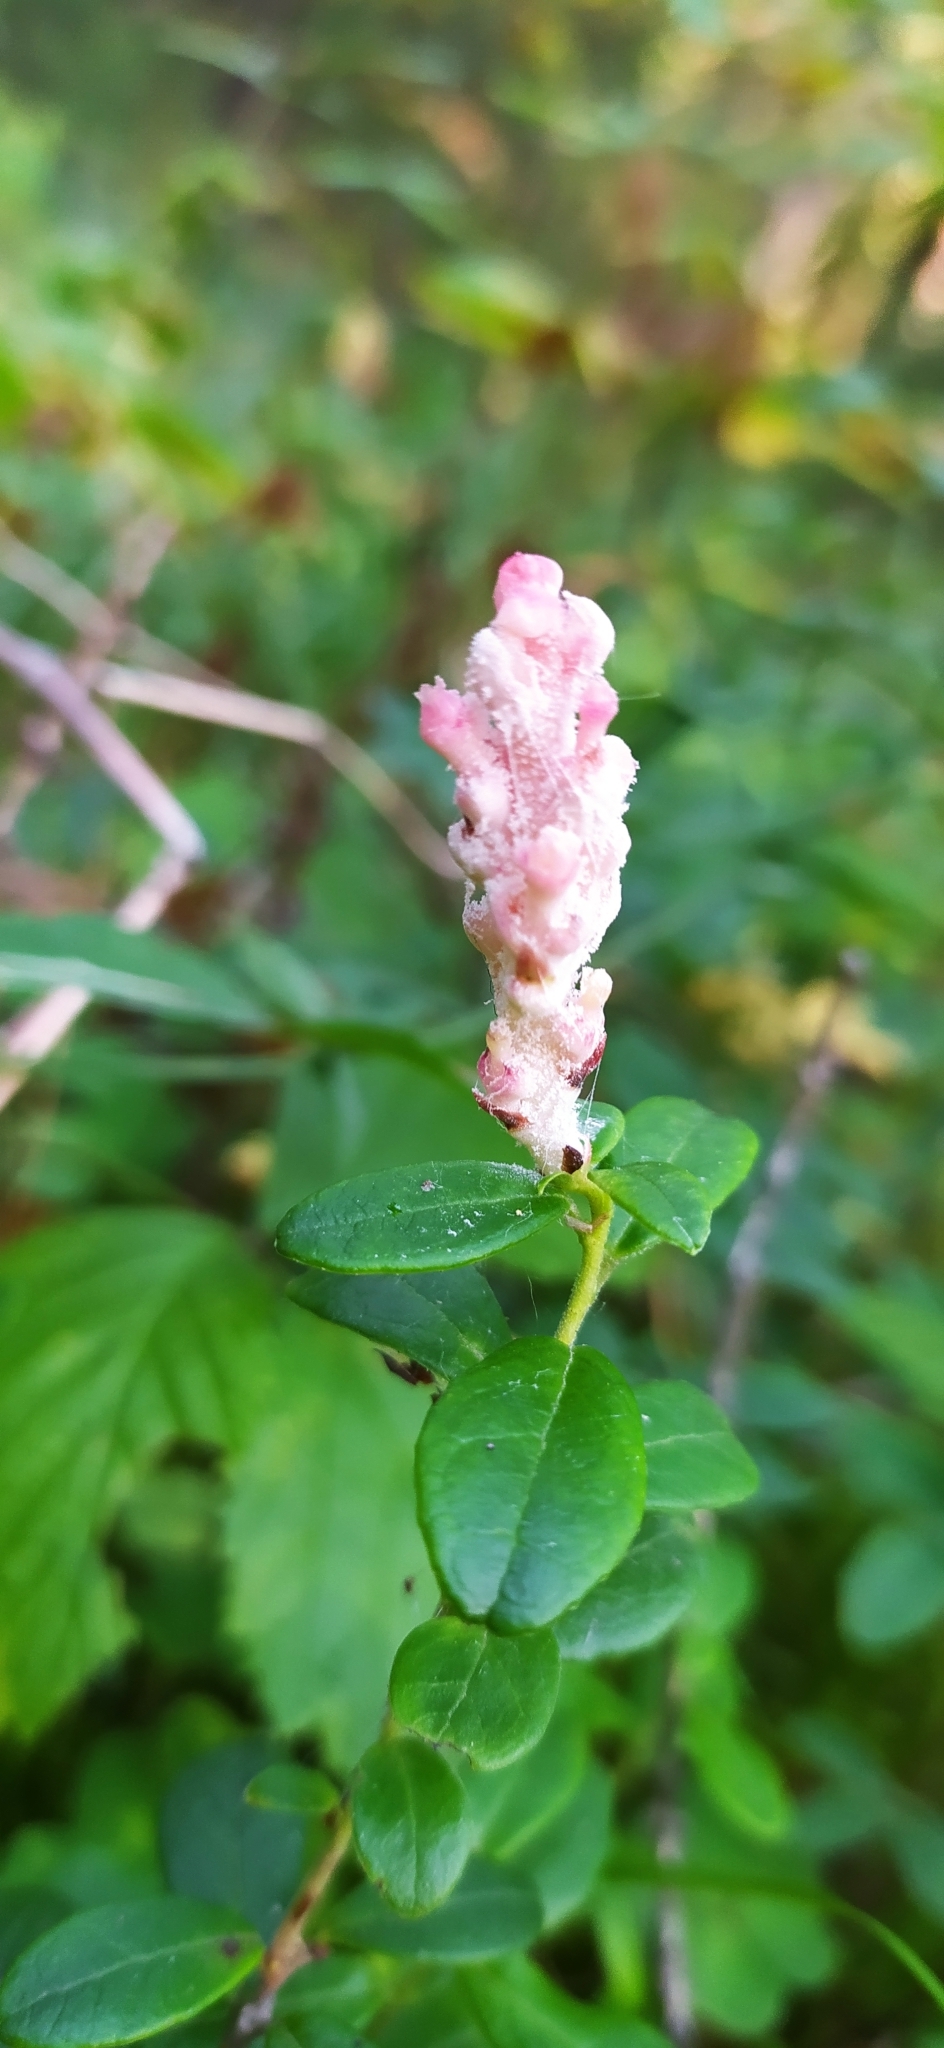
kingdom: Fungi
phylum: Basidiomycota
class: Exobasidiomycetes
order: Exobasidiales
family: Exobasidiaceae
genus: Exobasidium
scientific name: Exobasidium vaccinii
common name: Cowberry redleaf
